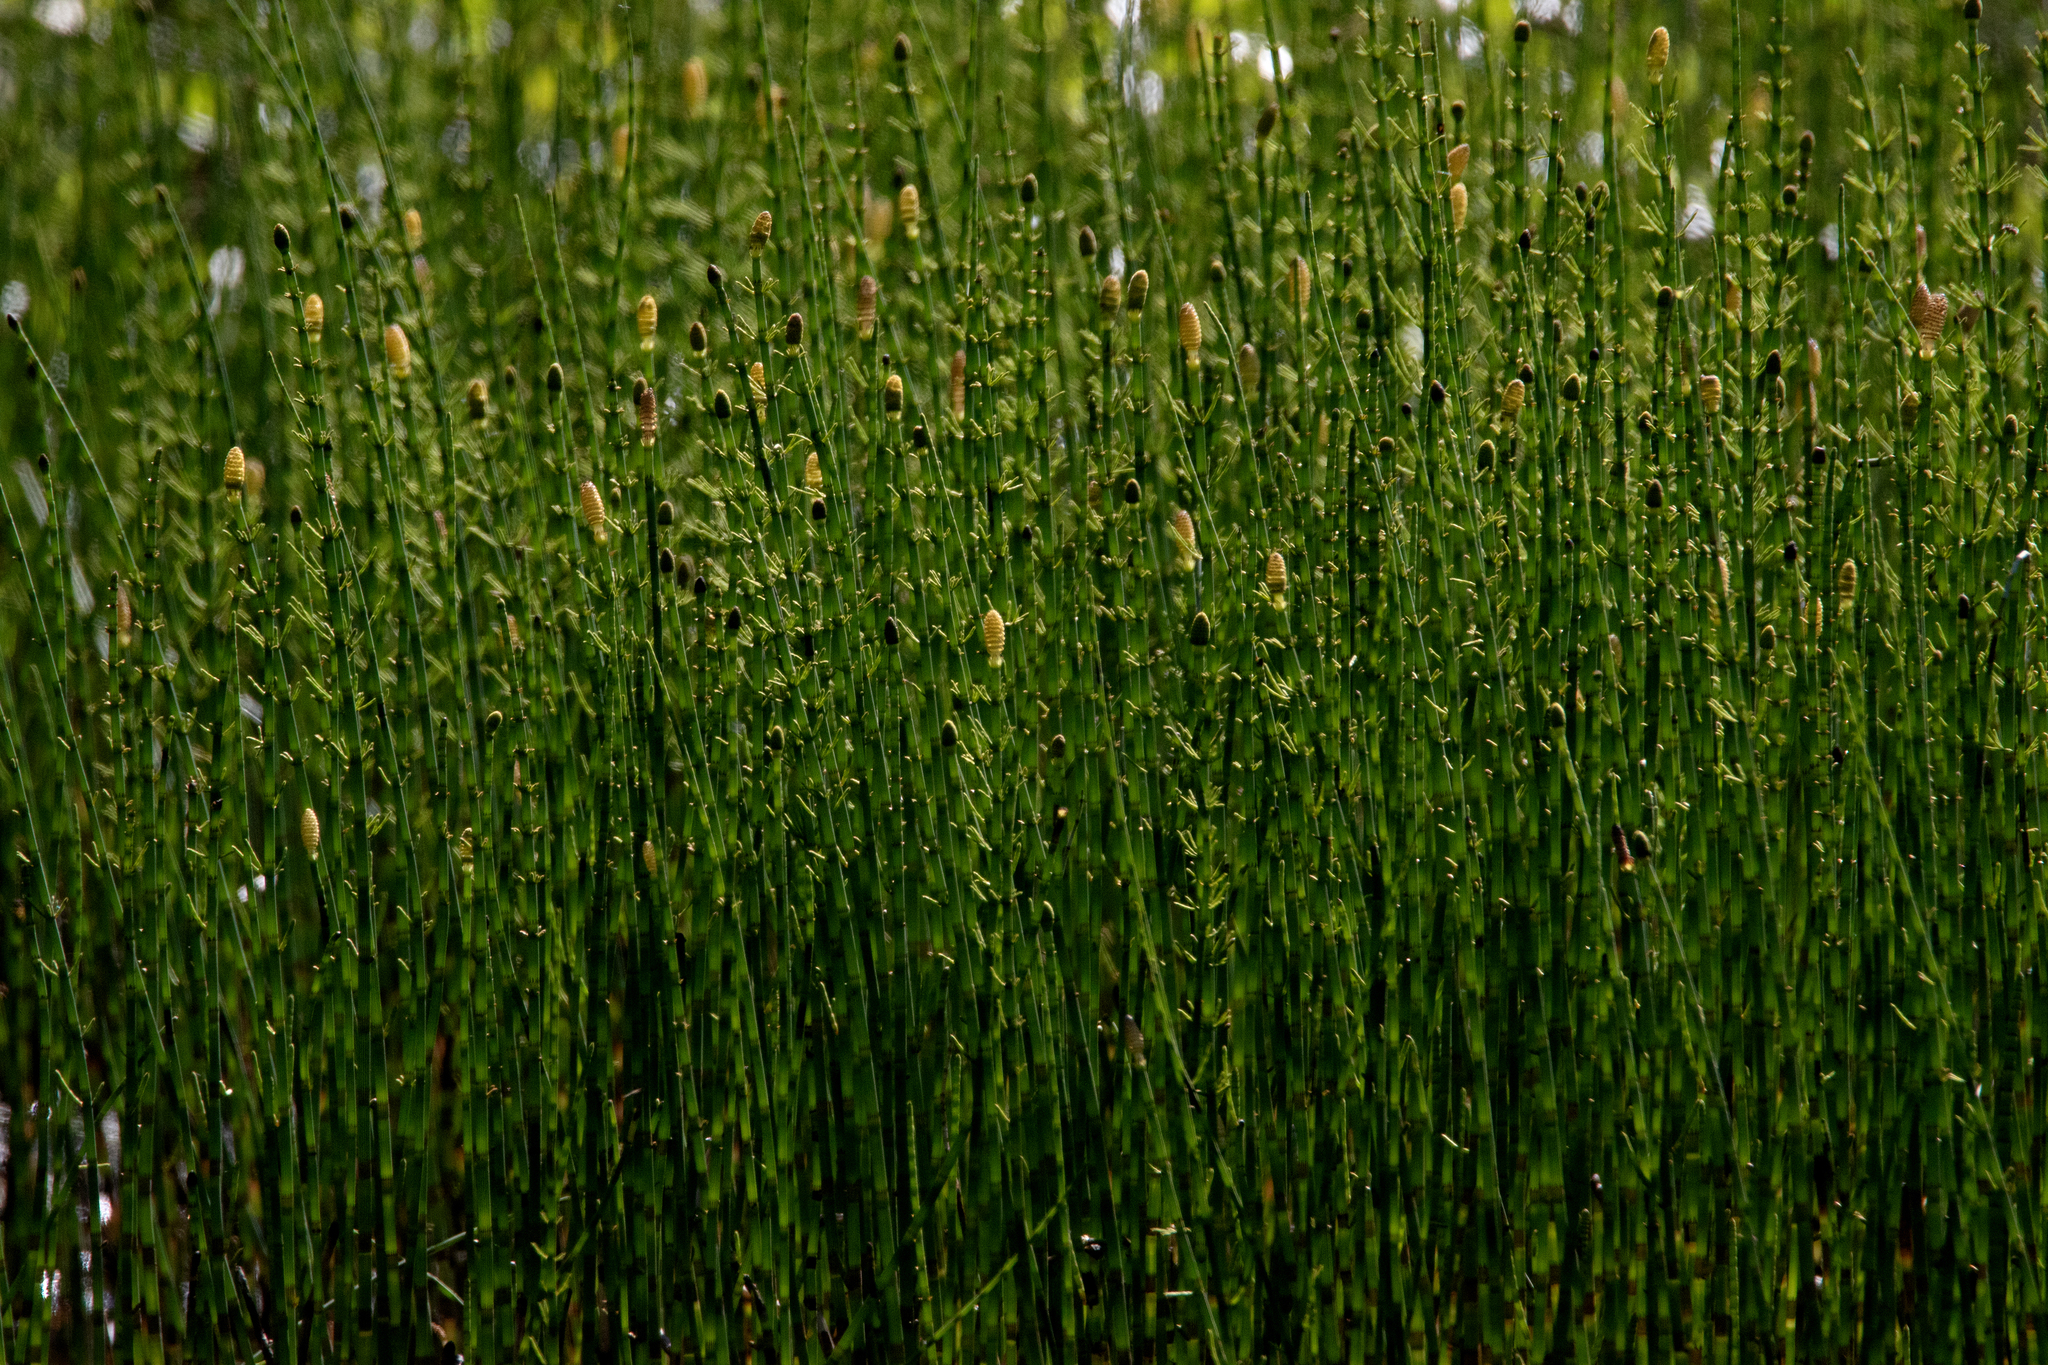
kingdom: Plantae
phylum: Tracheophyta
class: Polypodiopsida
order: Equisetales
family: Equisetaceae
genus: Equisetum
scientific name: Equisetum fluviatile
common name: Water horsetail
